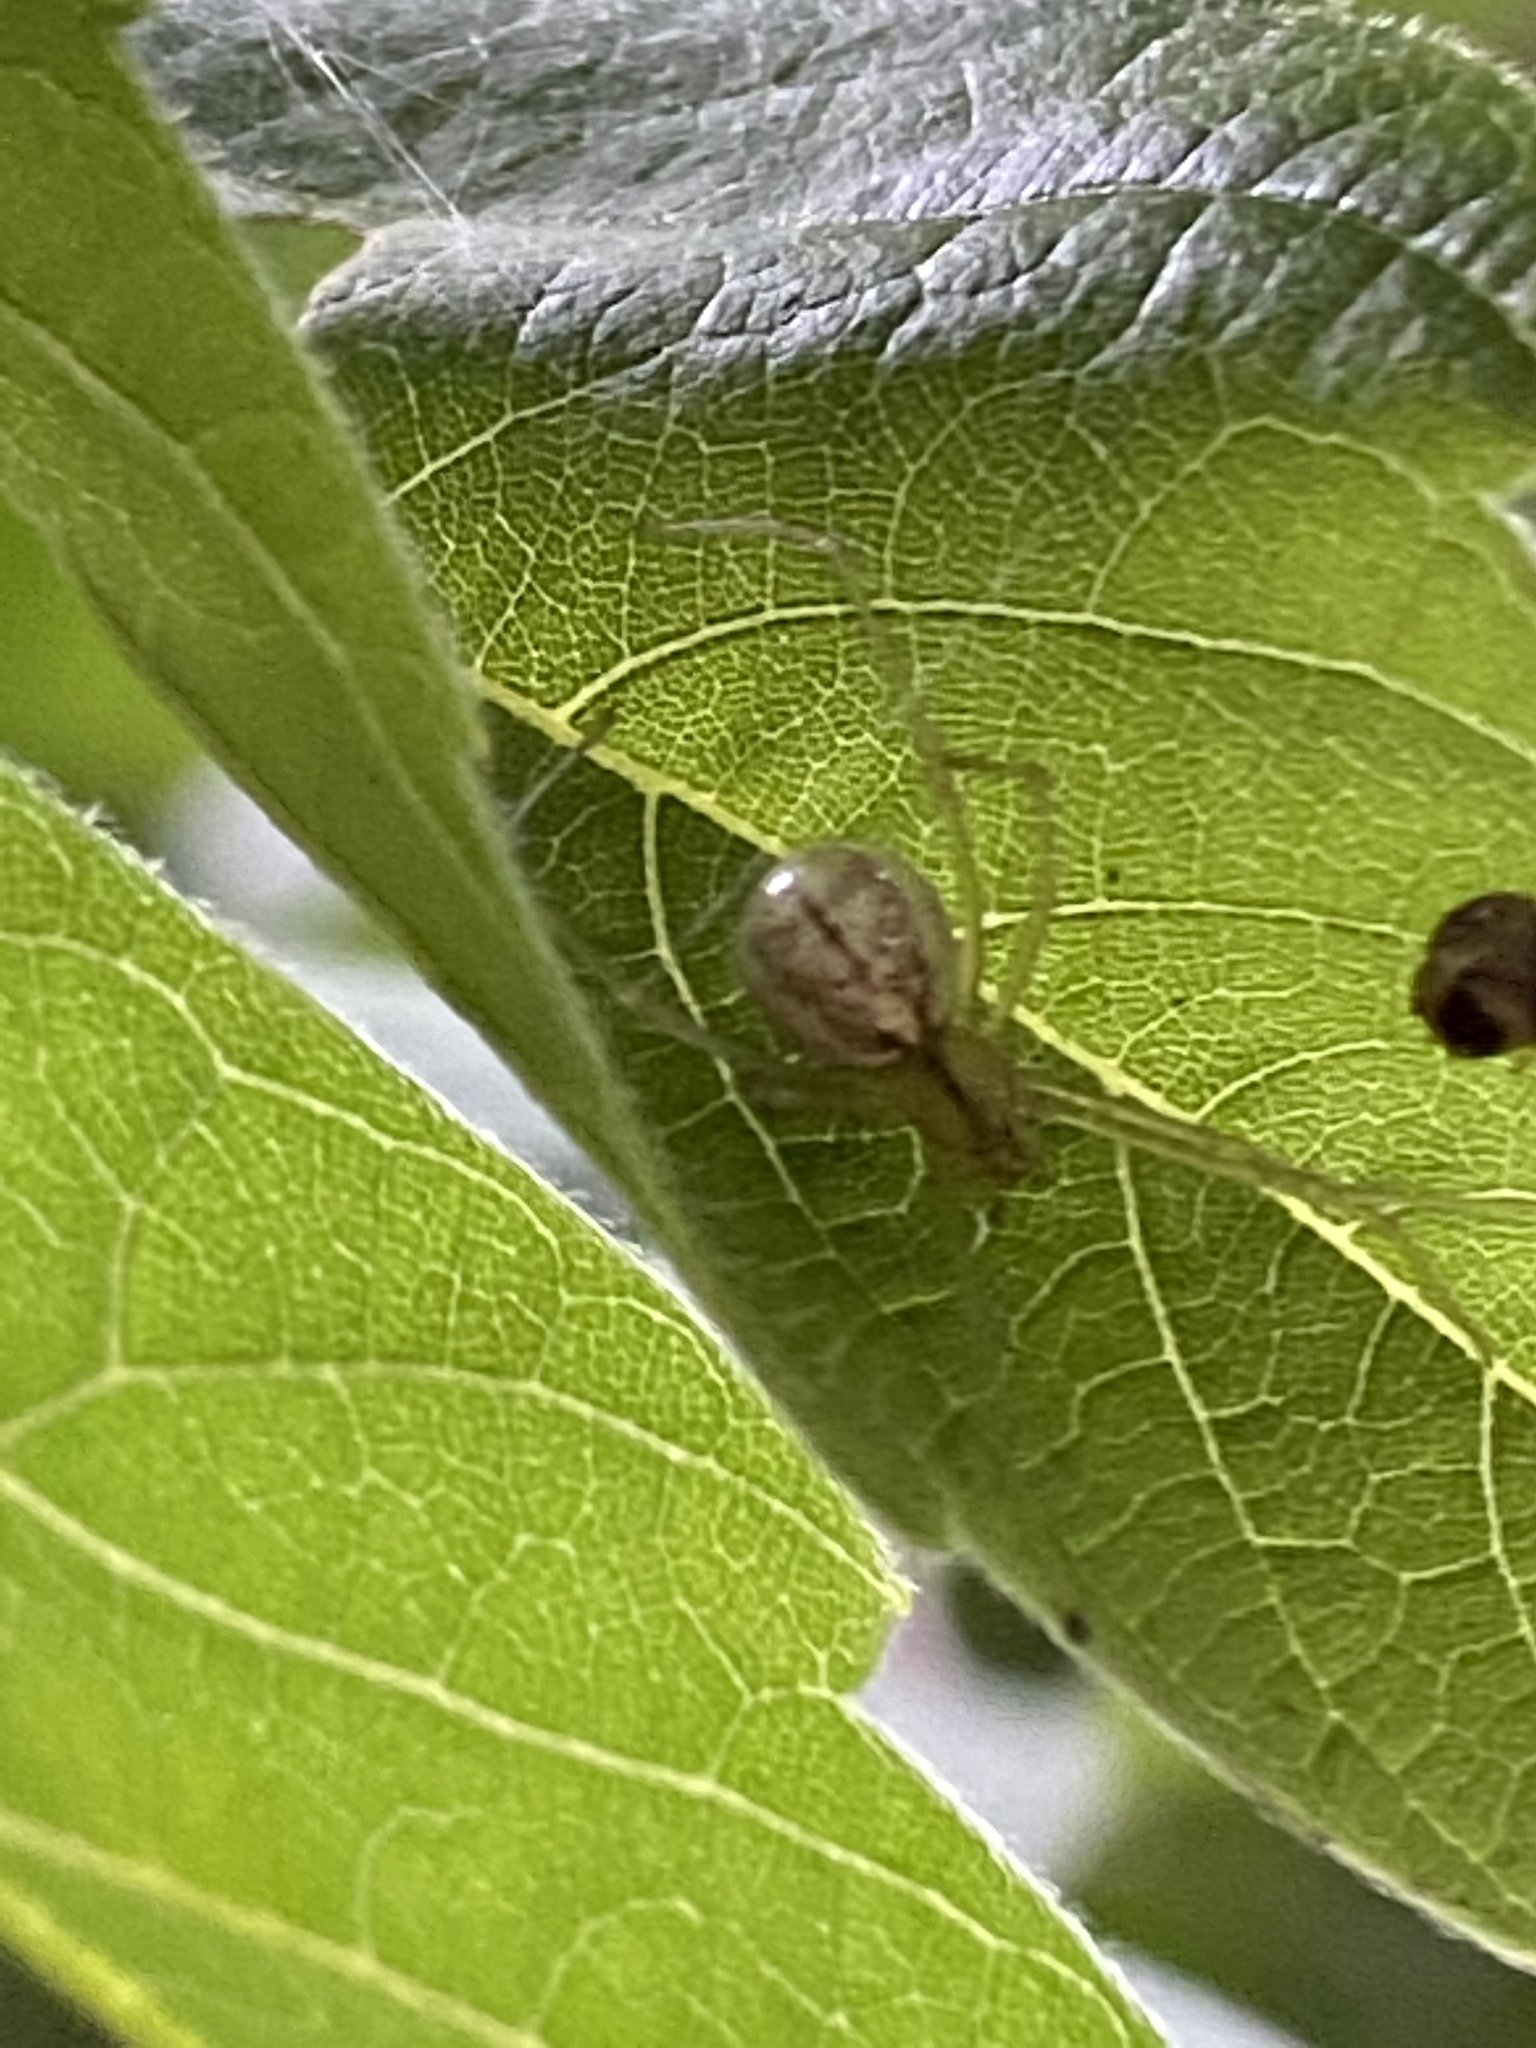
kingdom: Animalia
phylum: Arthropoda
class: Arachnida
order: Araneae
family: Theridiidae
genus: Enoplognatha
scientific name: Enoplognatha ovata
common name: Common candy-striped spider
